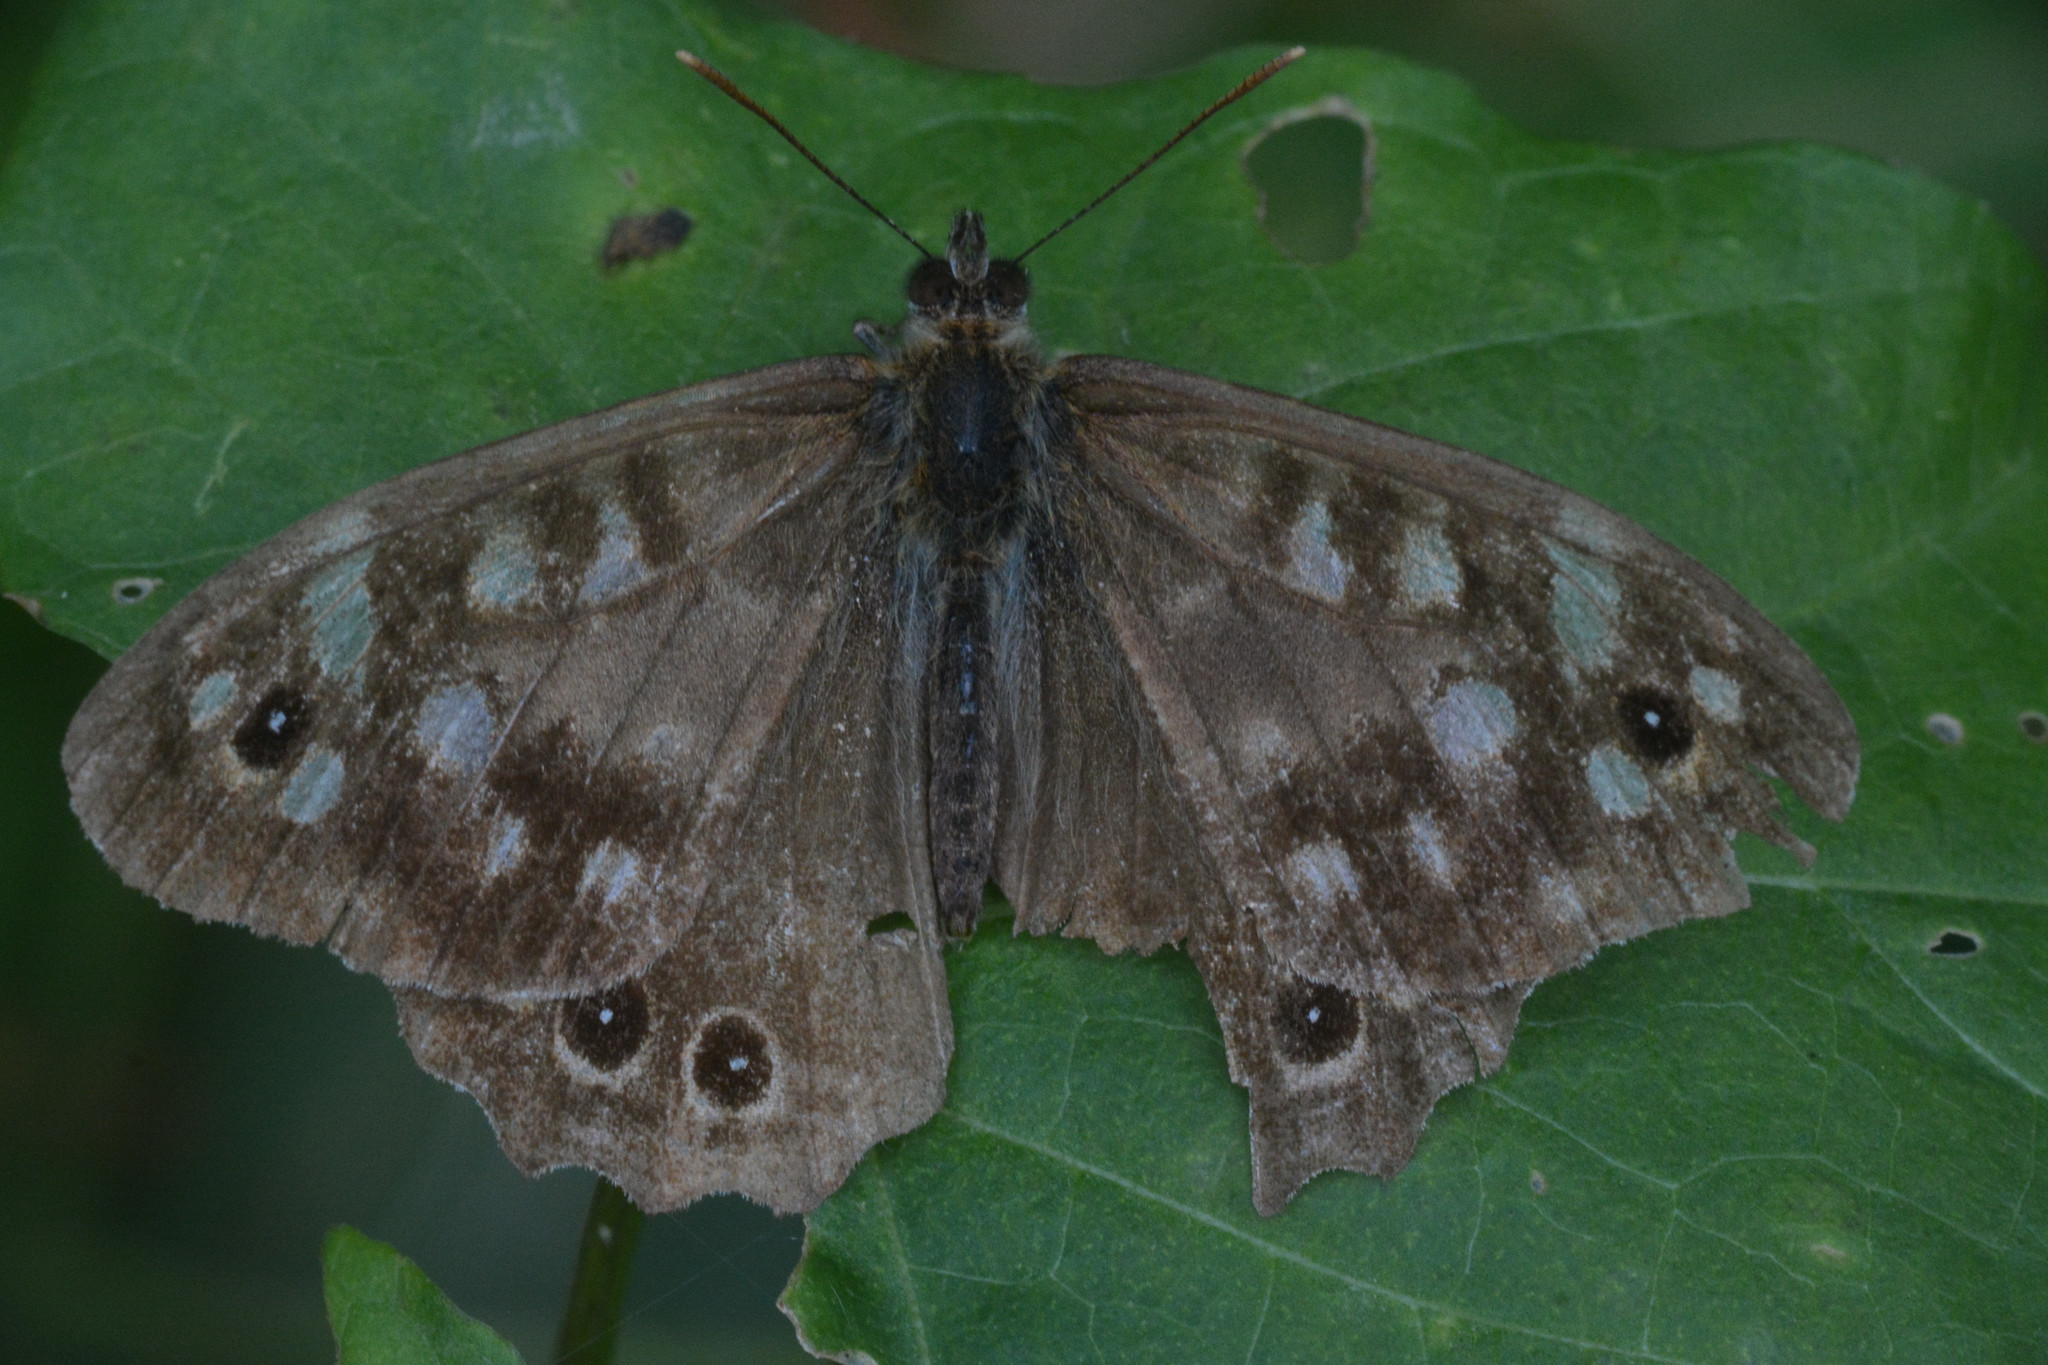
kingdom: Animalia
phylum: Arthropoda
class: Insecta
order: Lepidoptera
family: Nymphalidae
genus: Pararge
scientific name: Pararge aegeria
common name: Speckled wood
